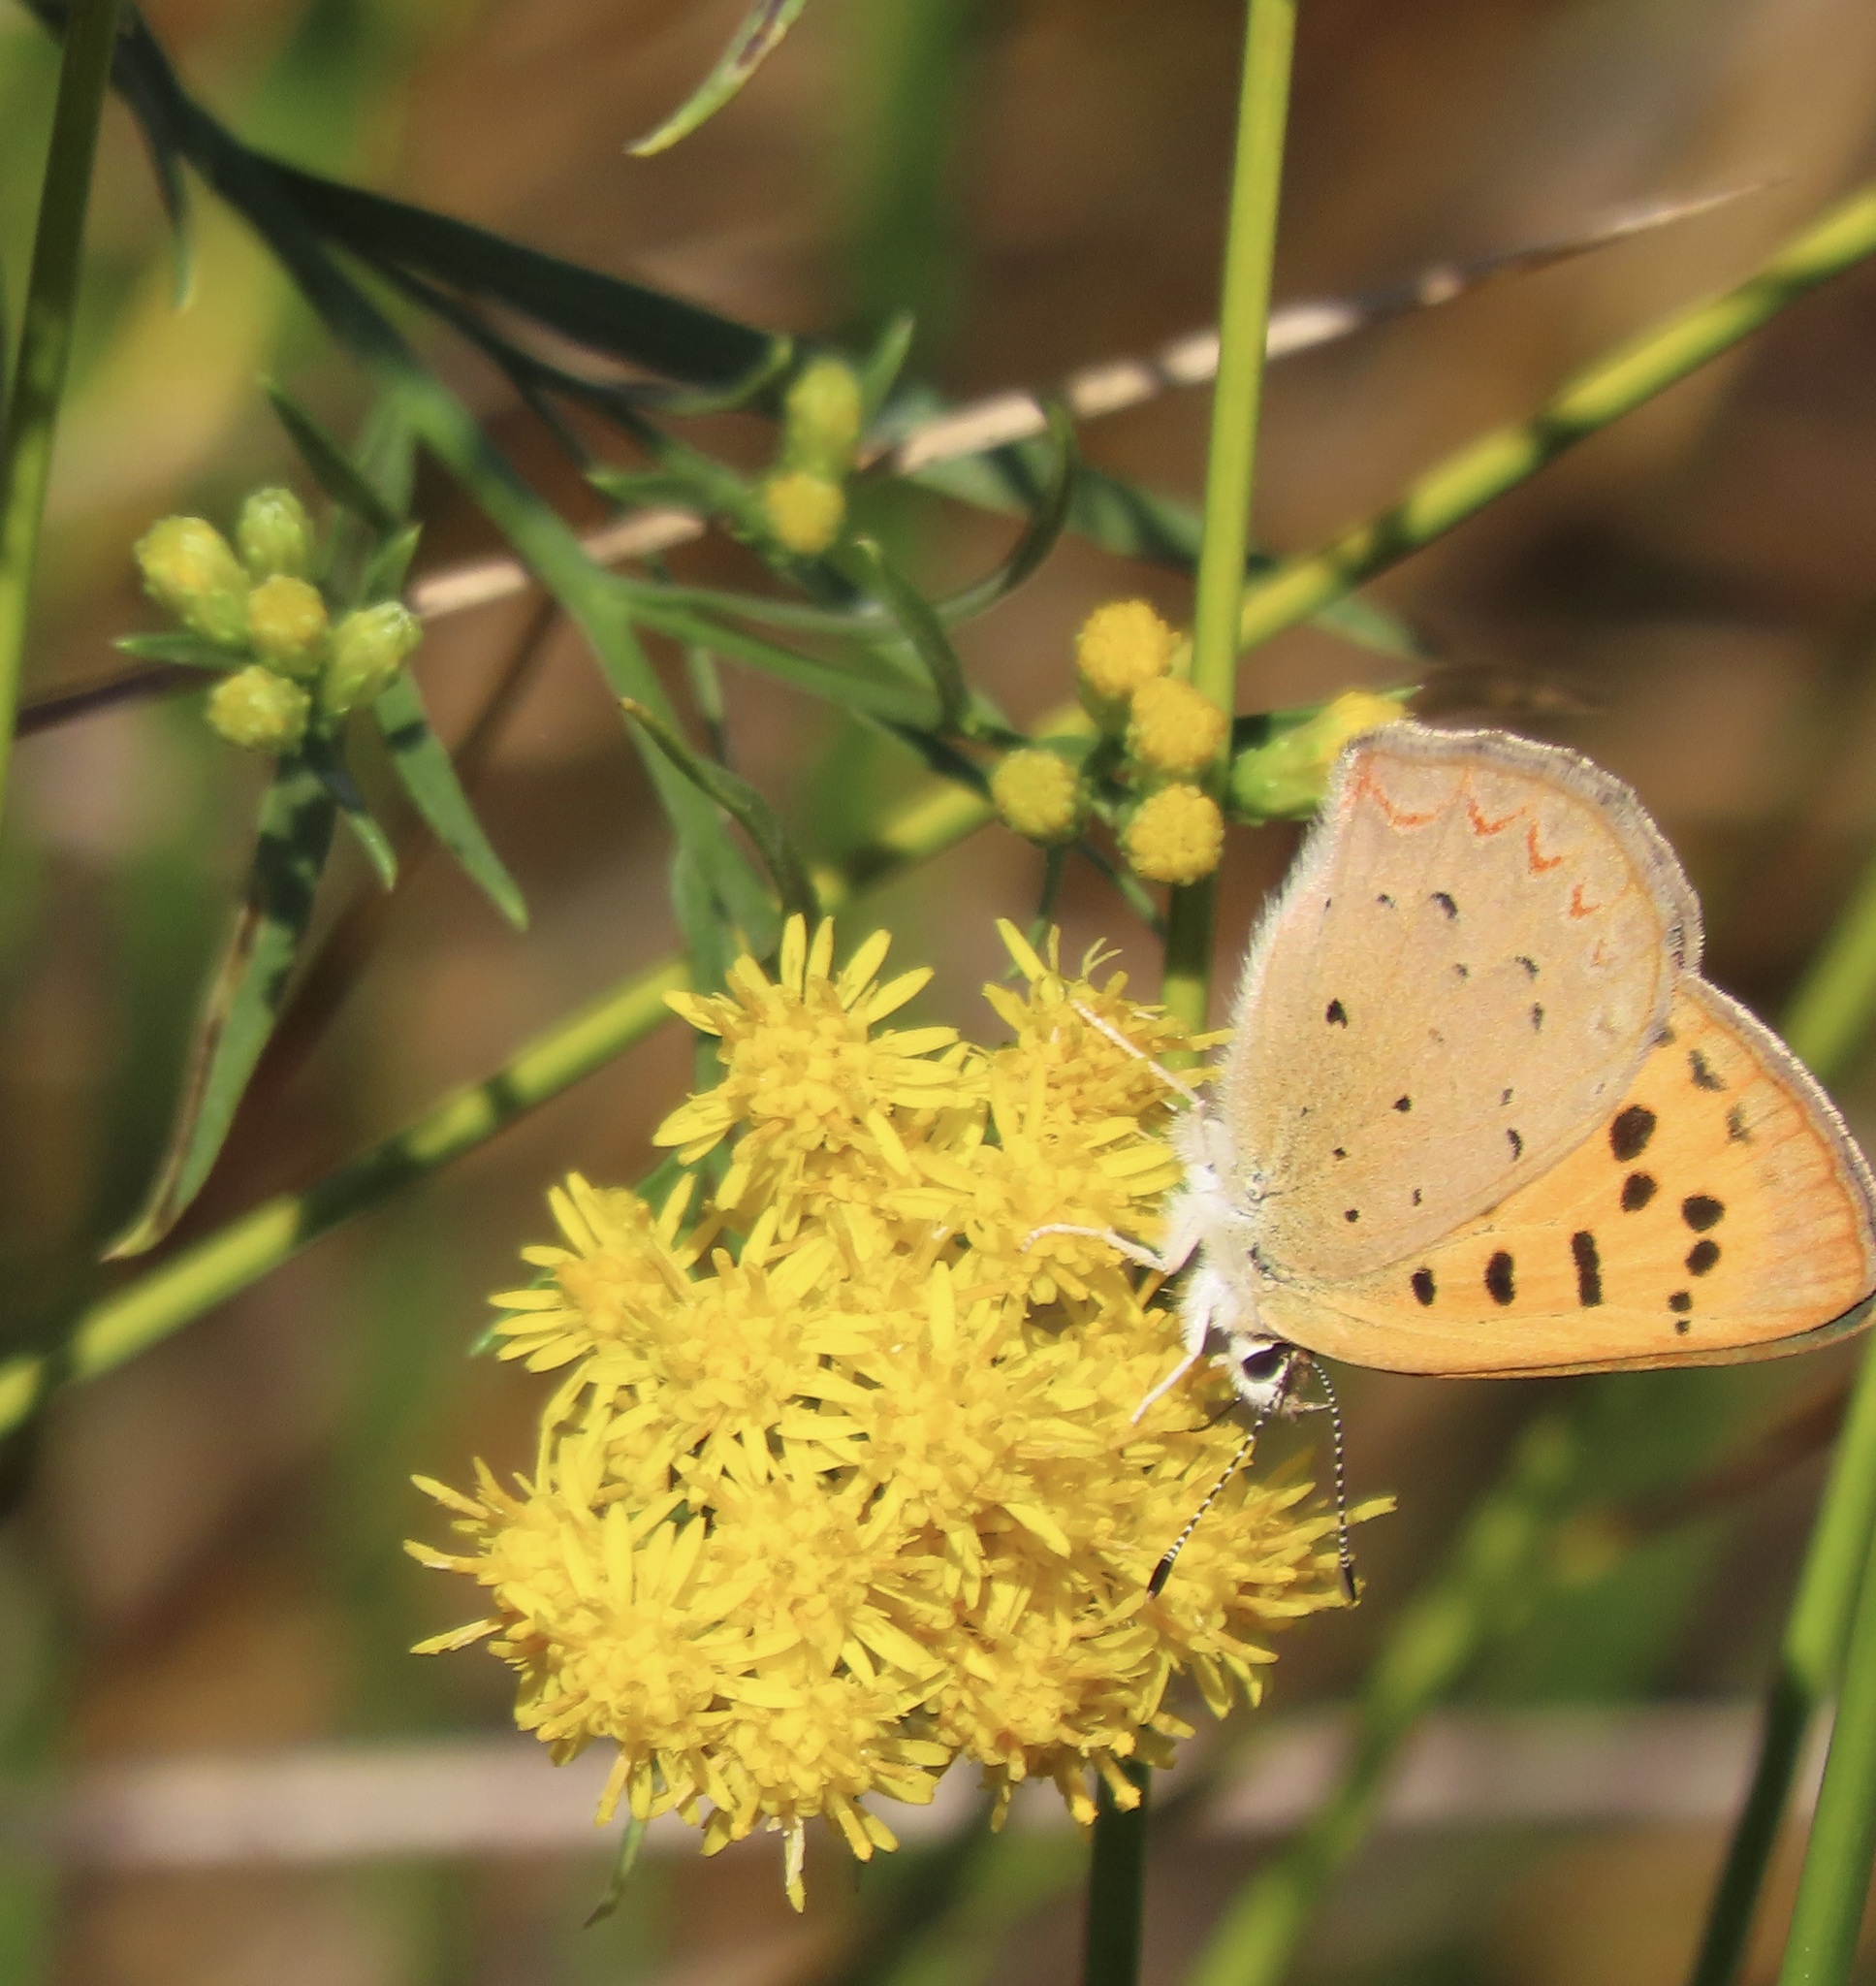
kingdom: Animalia
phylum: Arthropoda
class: Insecta
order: Lepidoptera
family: Lycaenidae
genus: Tharsalea
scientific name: Tharsalea helloides
